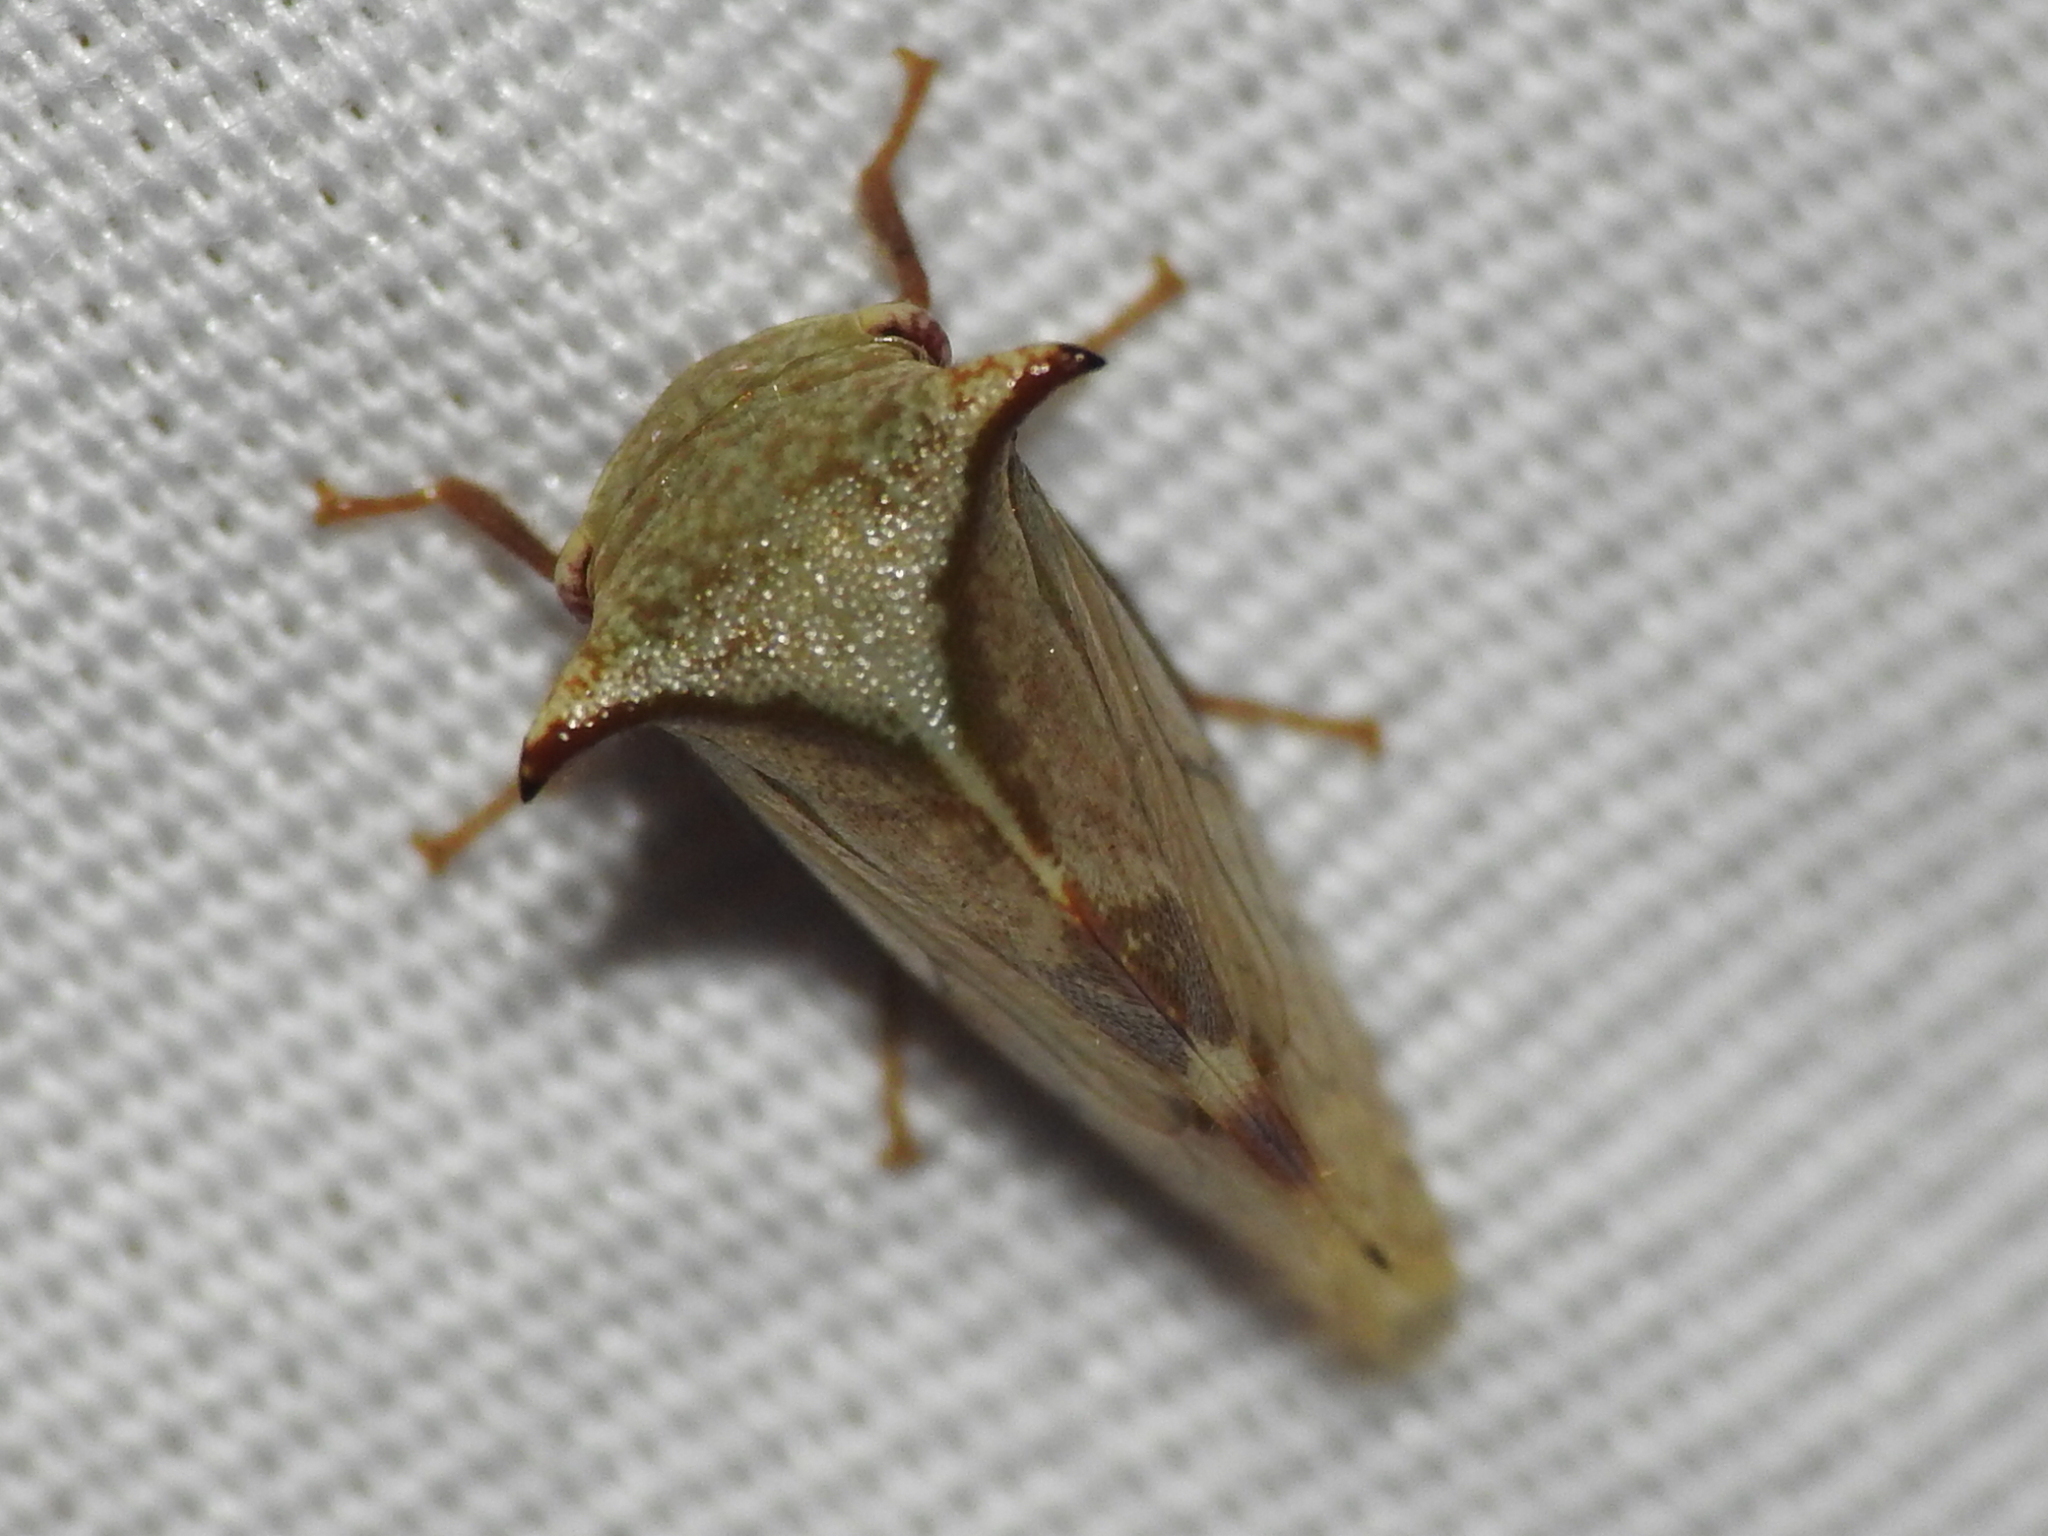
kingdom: Animalia
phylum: Arthropoda
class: Insecta
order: Hemiptera
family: Membracidae
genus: Stictocephala
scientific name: Stictocephala albescens
